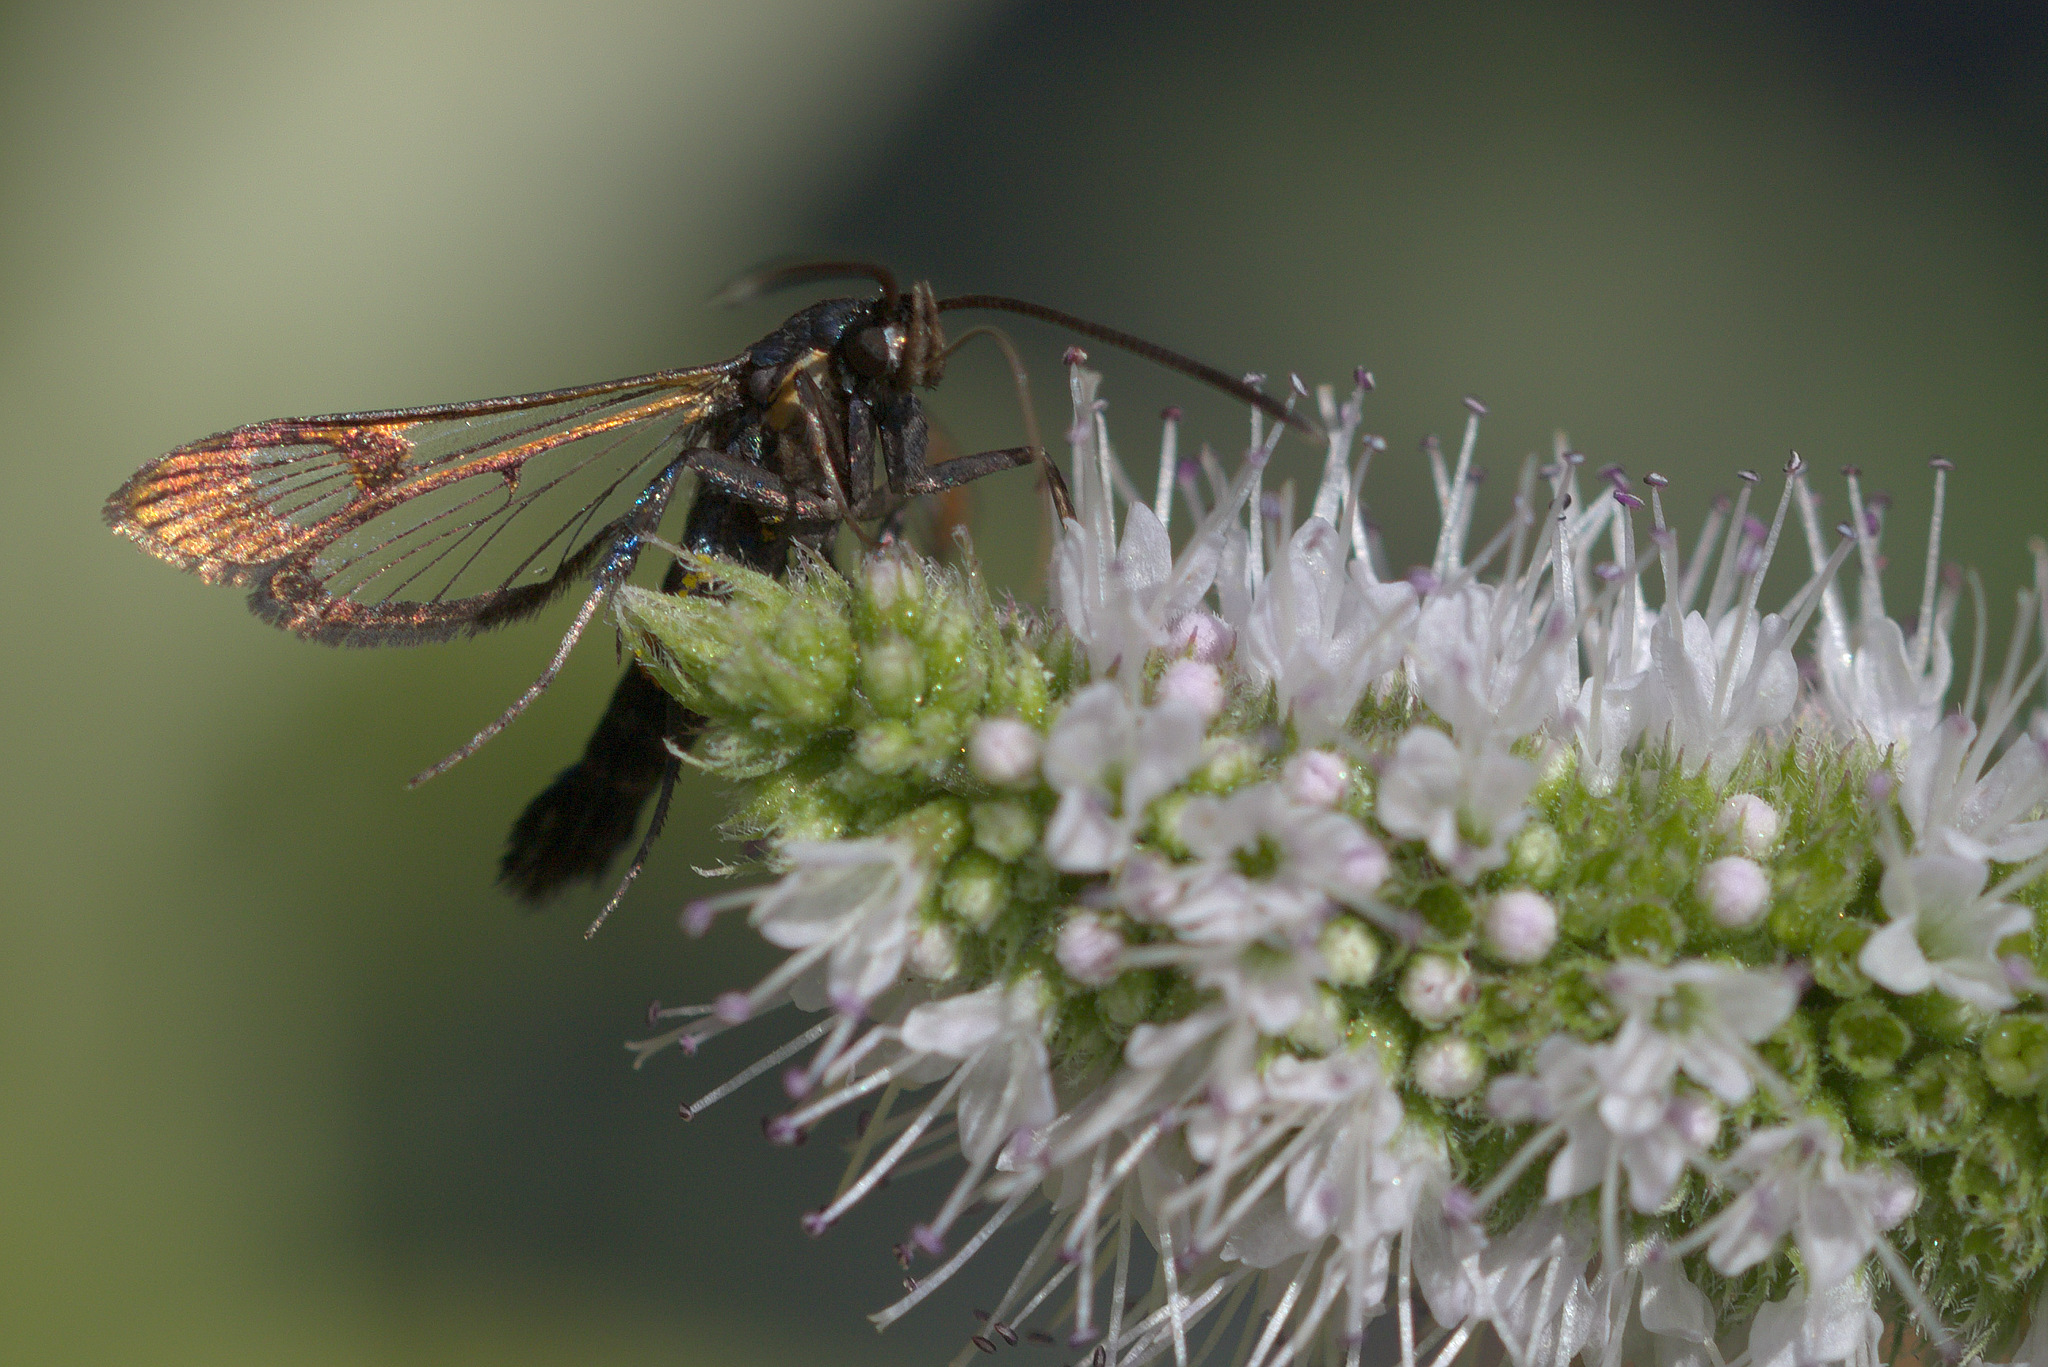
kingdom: Animalia
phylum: Arthropoda
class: Insecta
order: Lepidoptera
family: Sesiidae
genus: Synanthedon
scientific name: Synanthedon myopaeformis
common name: Red-belted clearwing
